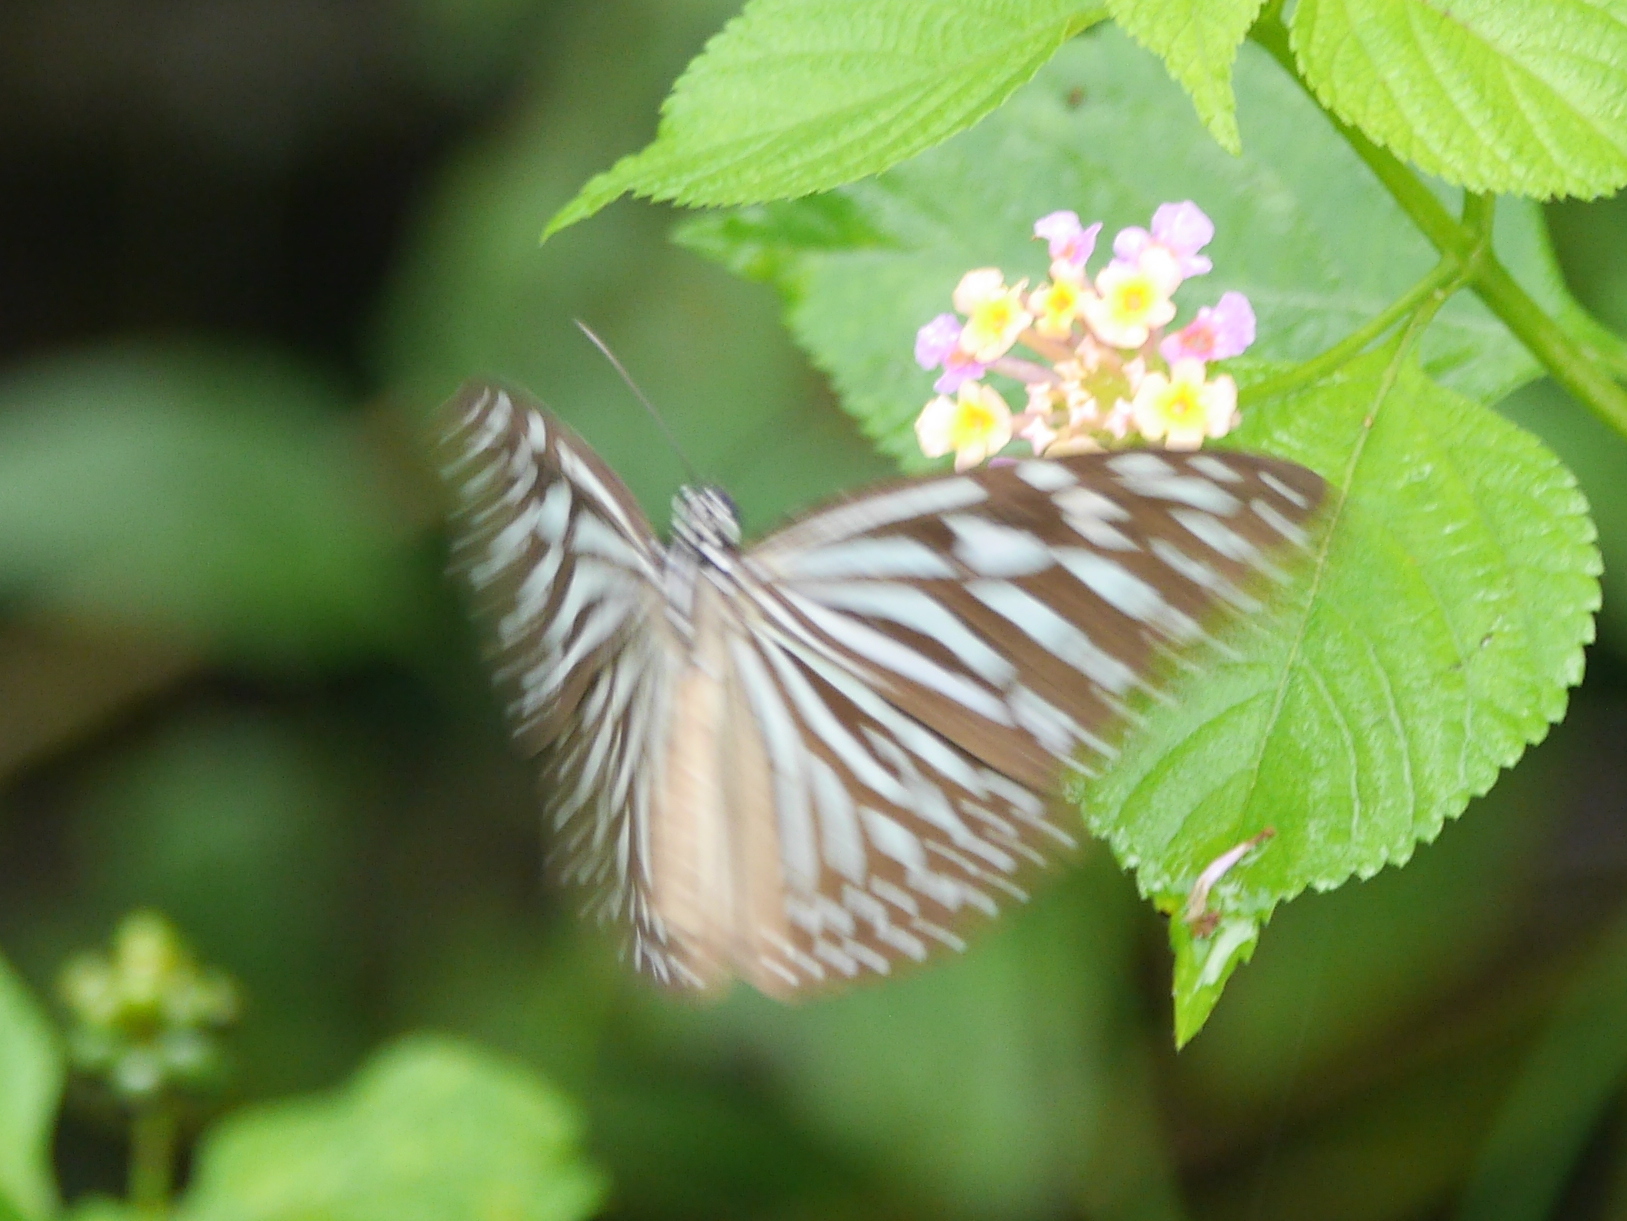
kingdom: Animalia
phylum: Arthropoda
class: Insecta
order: Lepidoptera
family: Nymphalidae
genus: Ideopsis
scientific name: Ideopsis vulgaris
